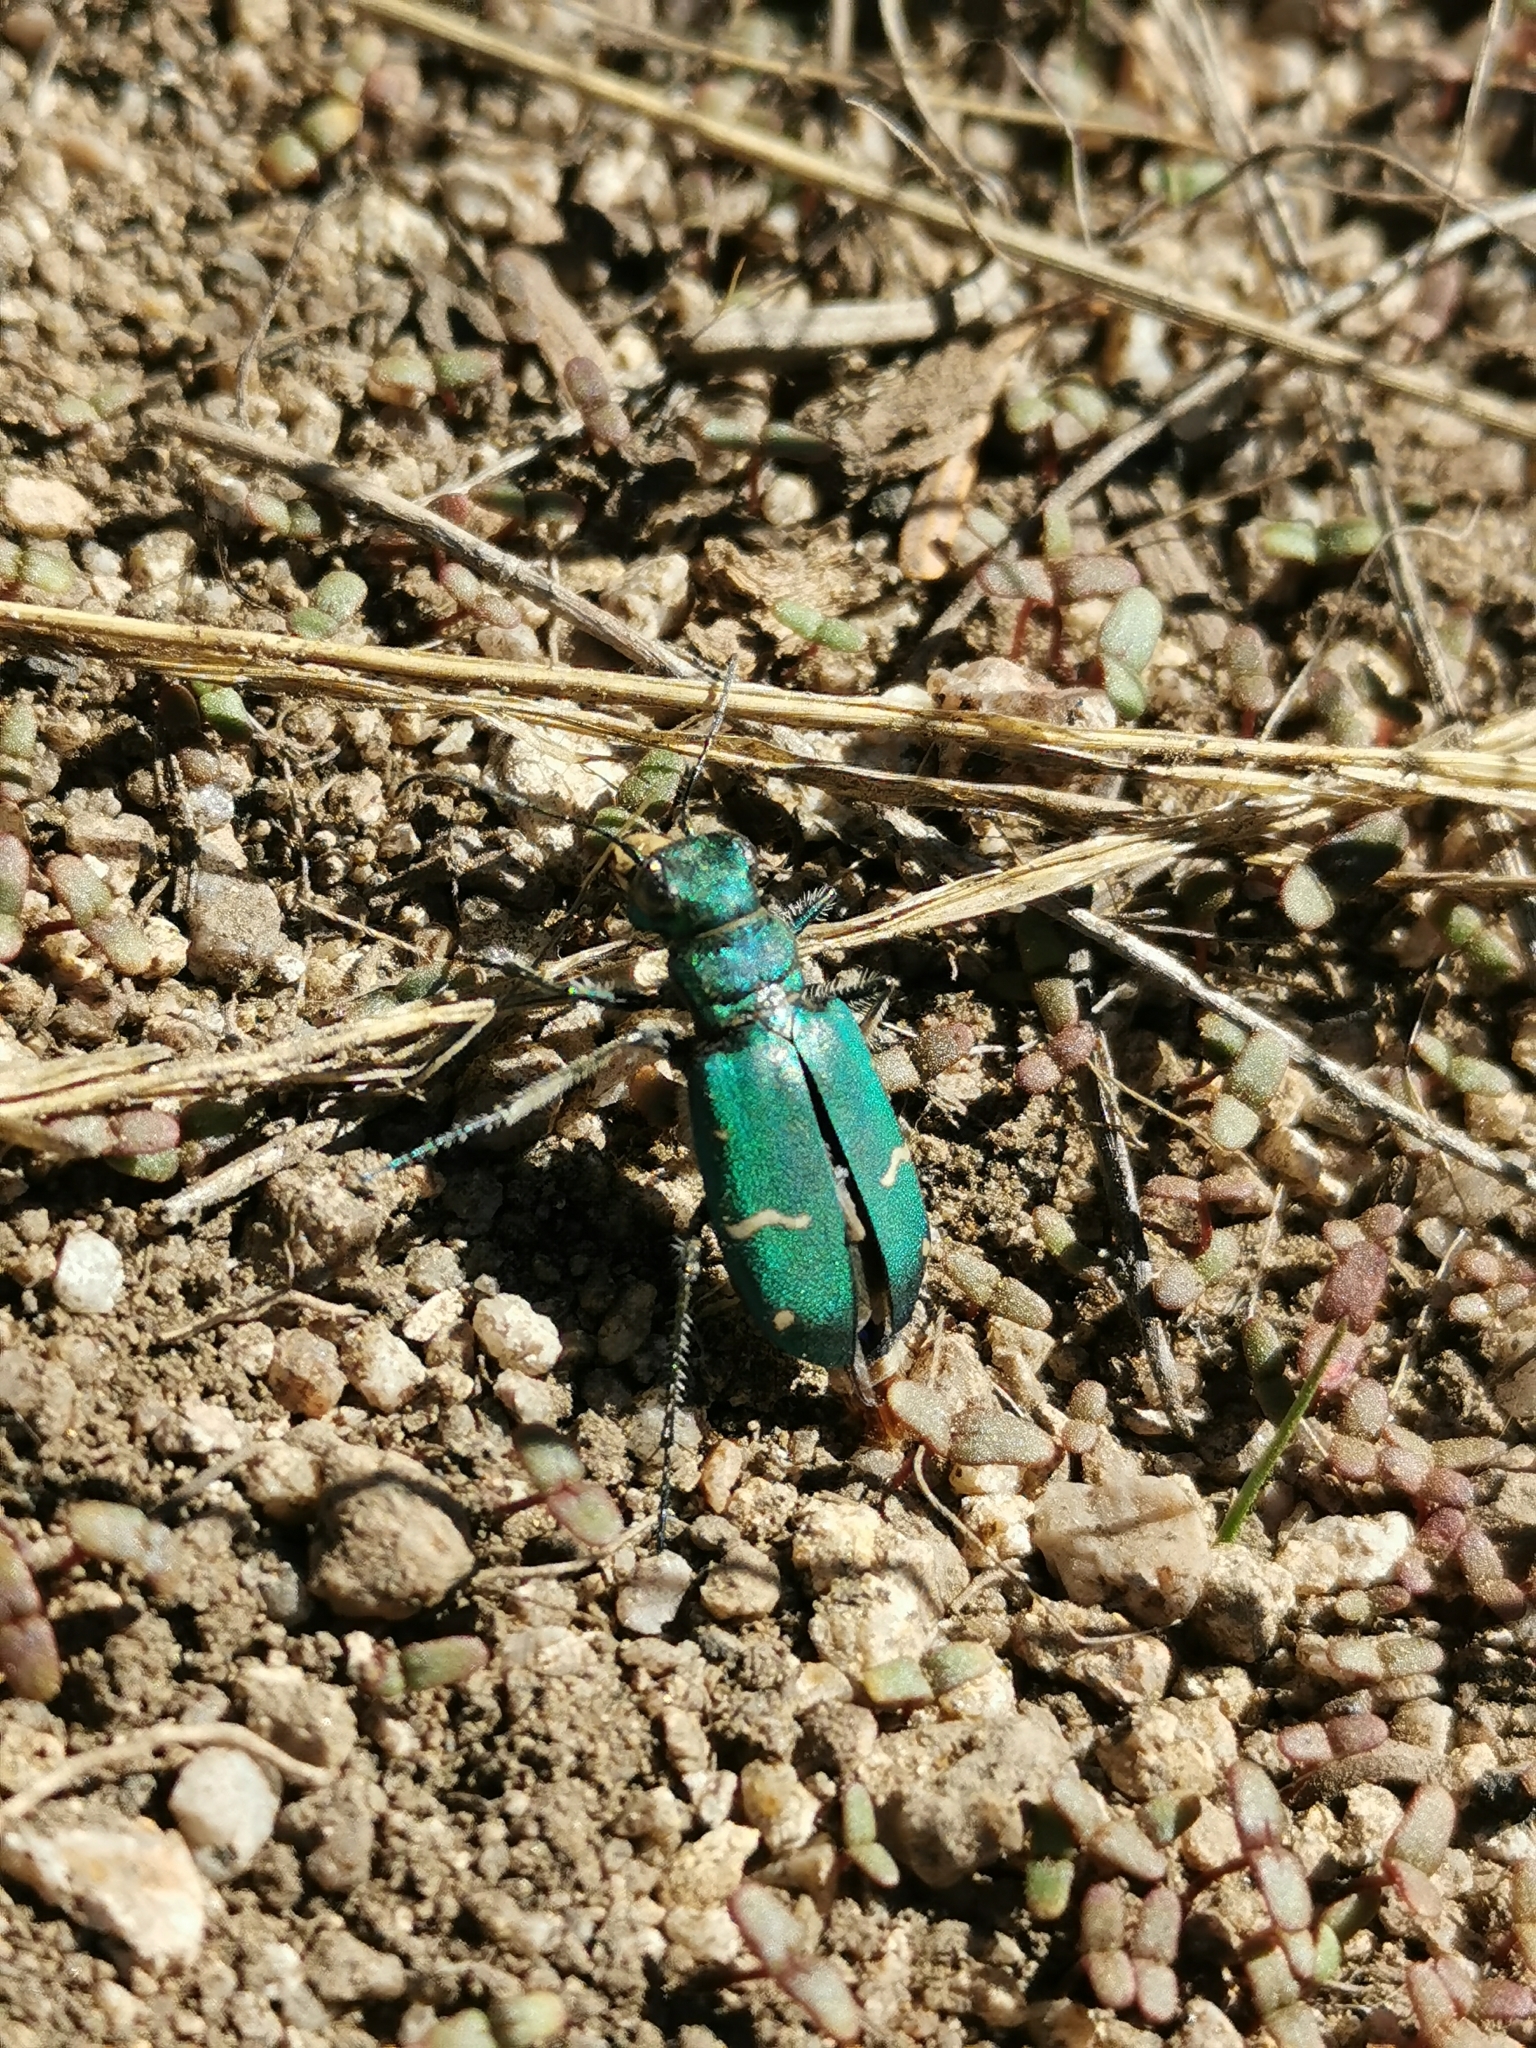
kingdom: Animalia
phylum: Arthropoda
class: Insecta
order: Coleoptera
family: Carabidae
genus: Cicindela
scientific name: Cicindela longilabris
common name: Boreal long-lipped tiger beetle
